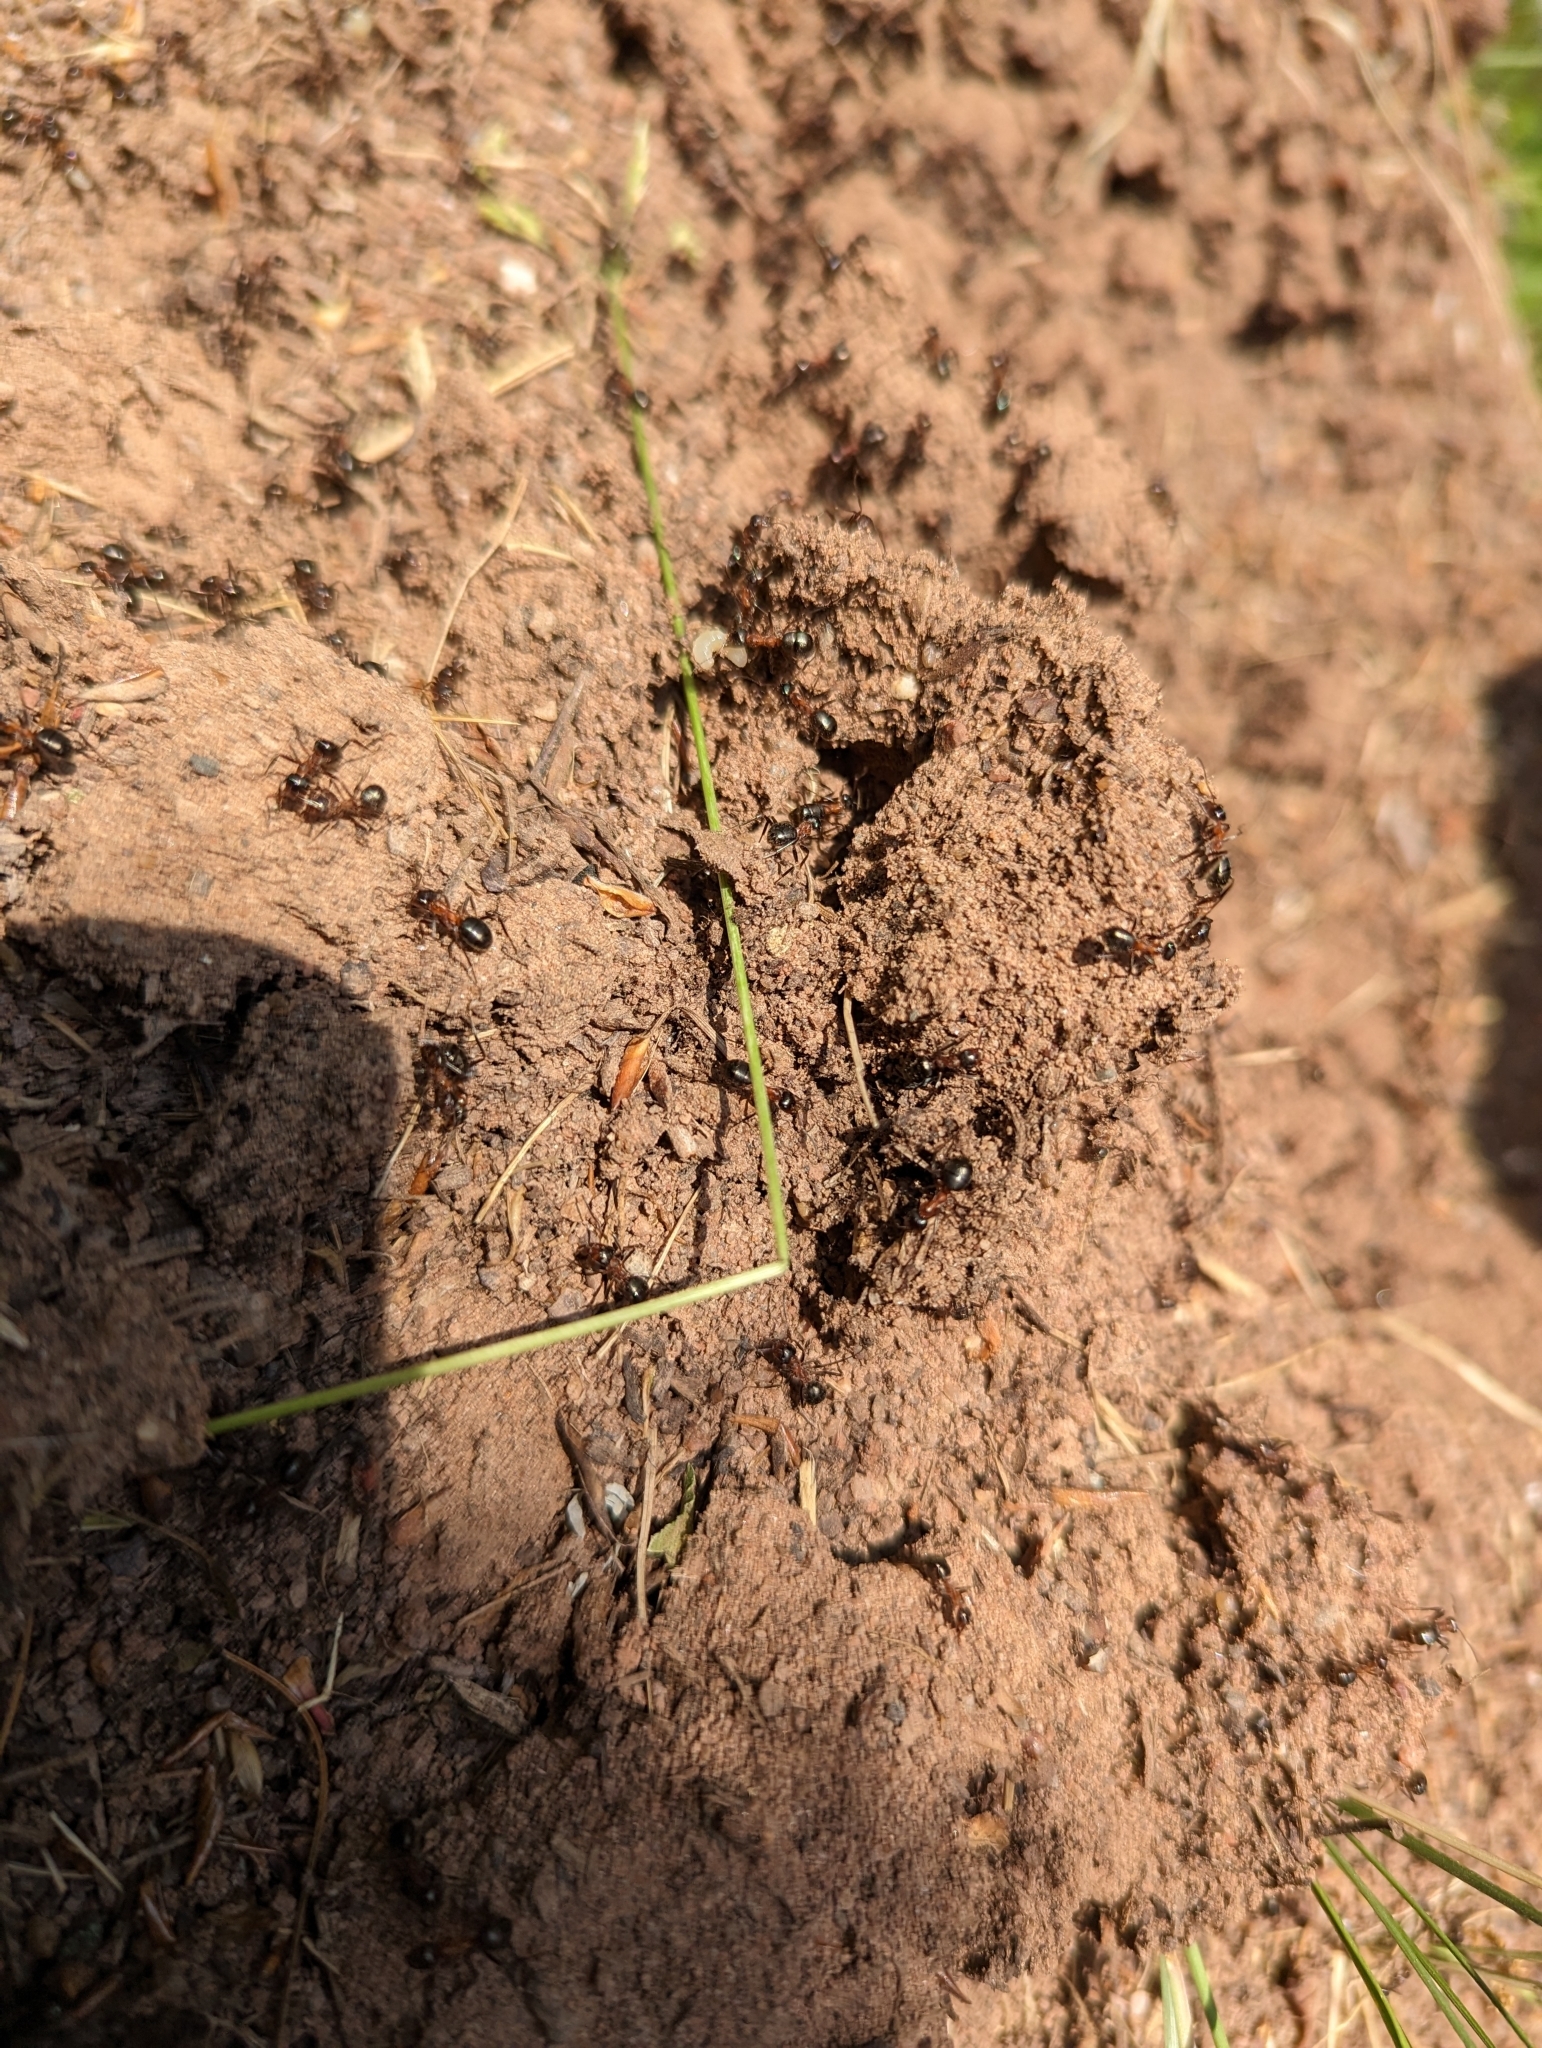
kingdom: Animalia
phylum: Arthropoda
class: Insecta
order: Hymenoptera
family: Formicidae
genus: Formica
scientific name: Formica ulkei
